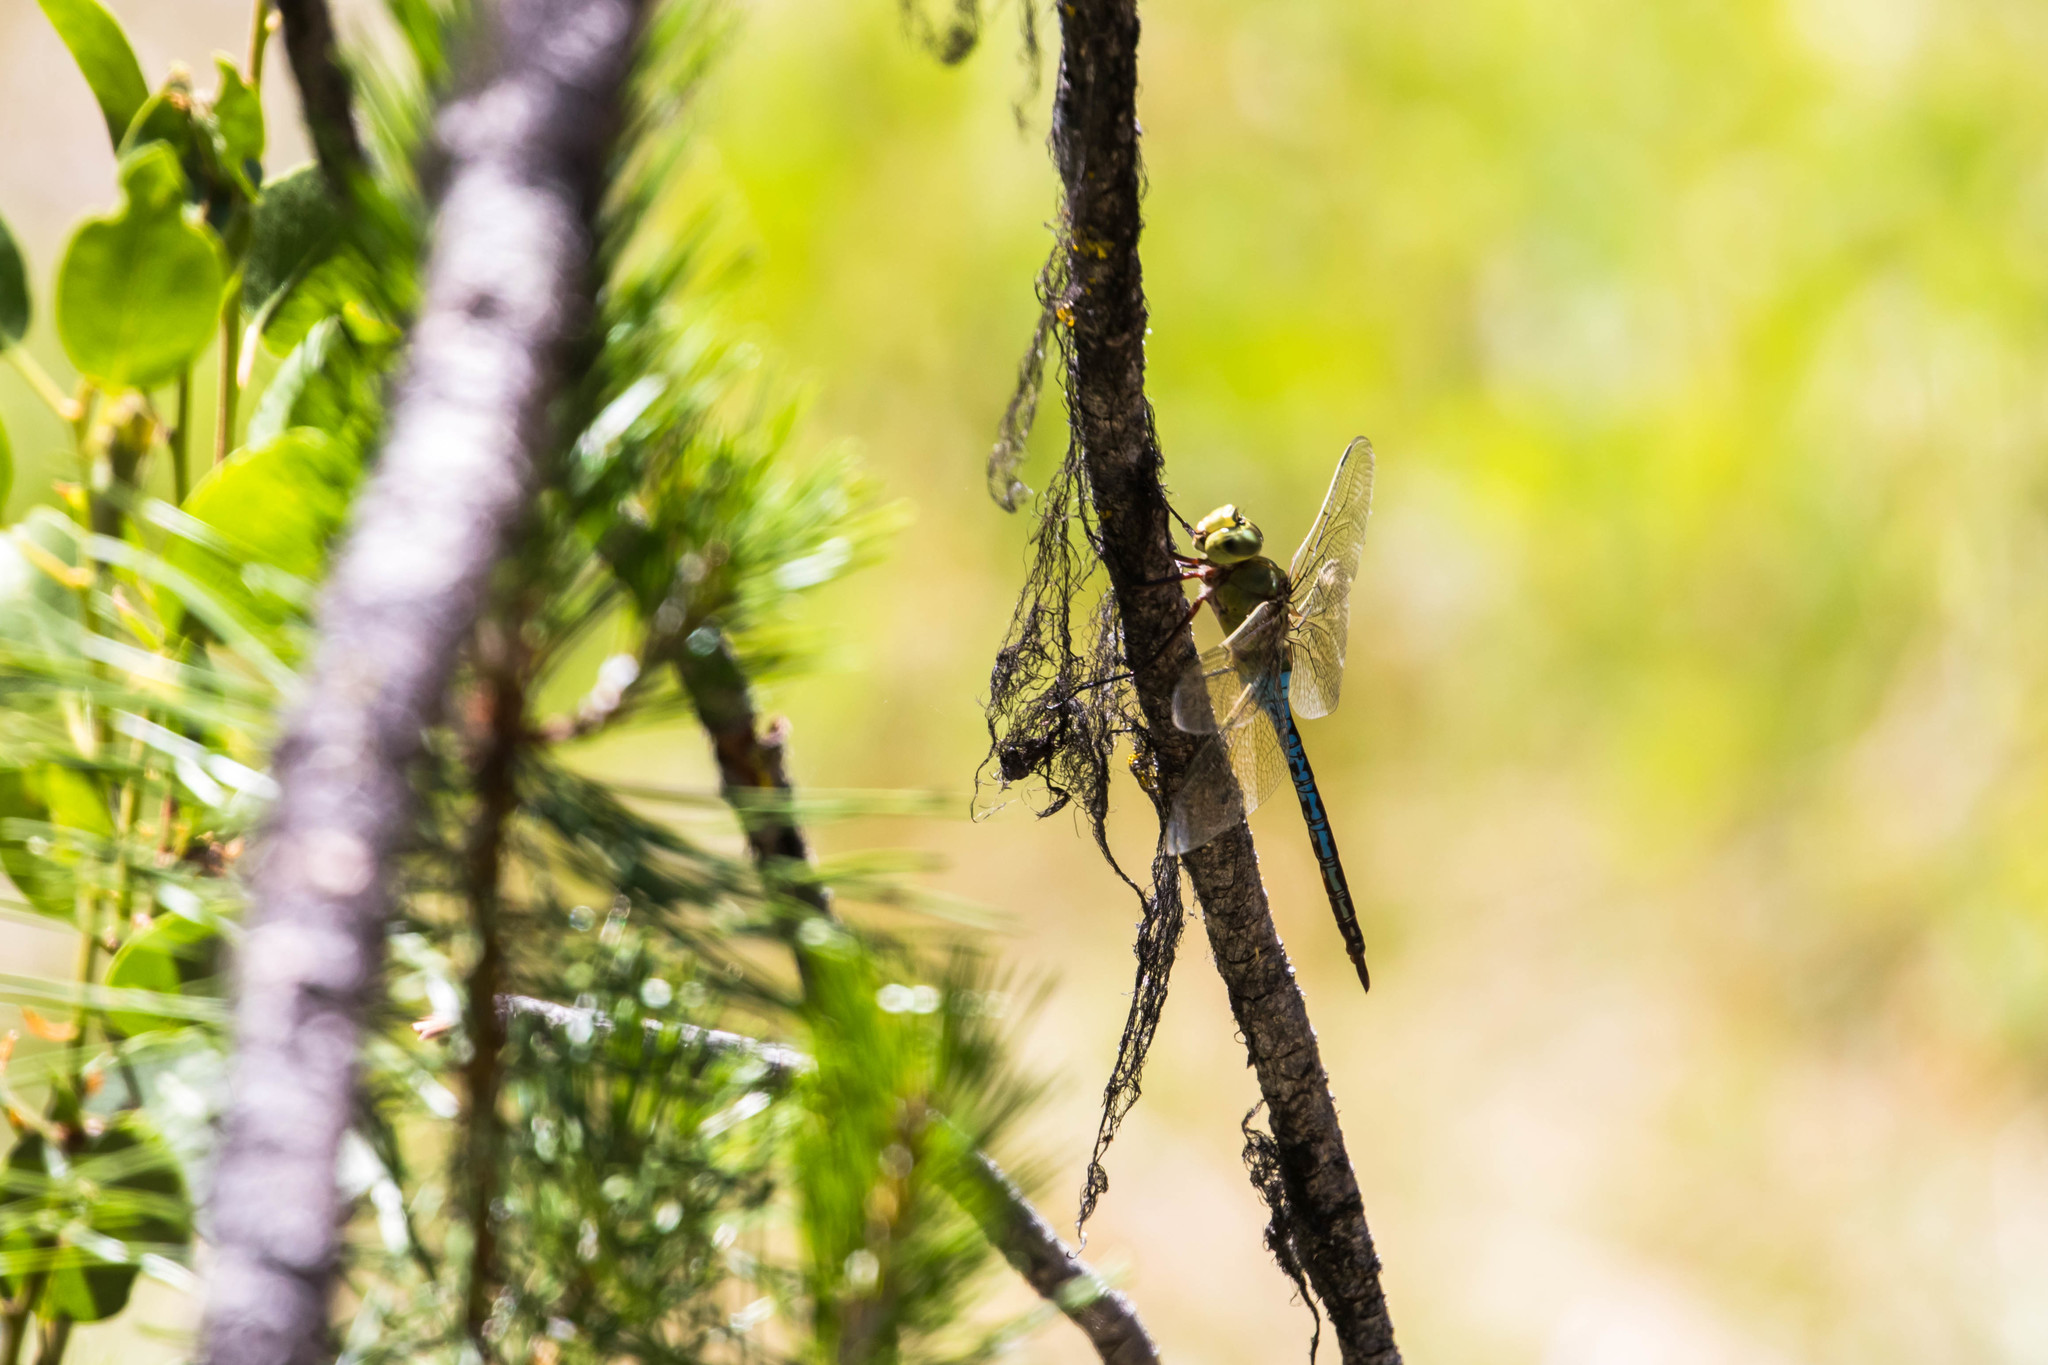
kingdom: Animalia
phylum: Arthropoda
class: Insecta
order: Odonata
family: Aeshnidae
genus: Anax
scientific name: Anax junius
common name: Common green darner
